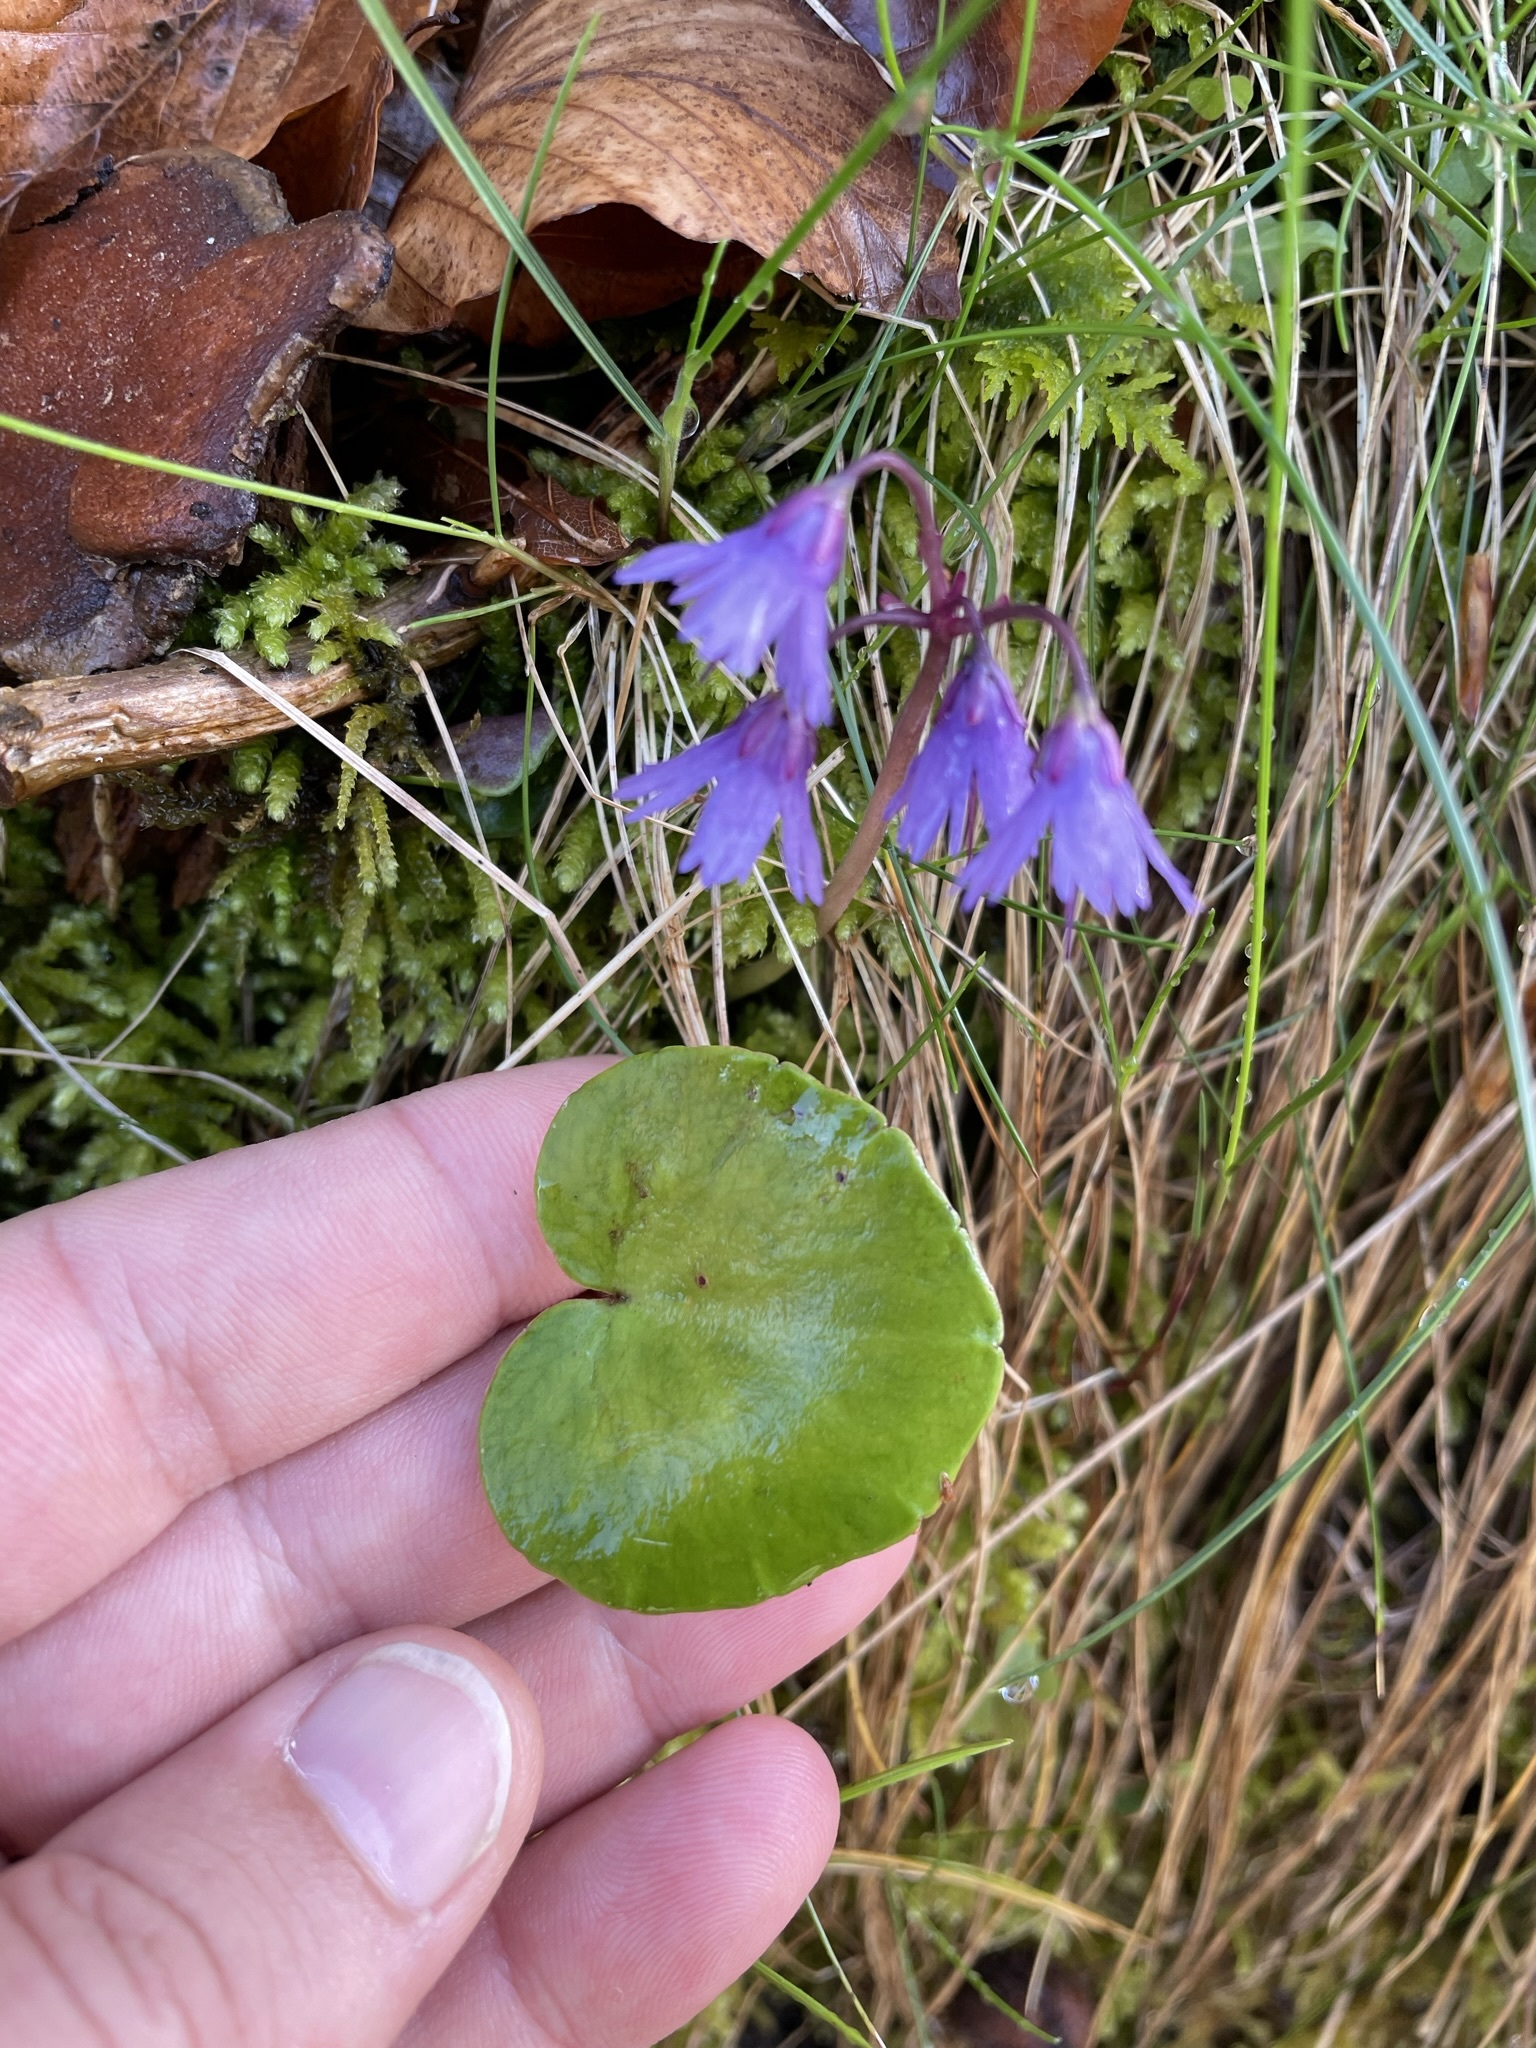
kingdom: Plantae
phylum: Tracheophyta
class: Magnoliopsida
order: Ericales
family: Primulaceae
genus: Soldanella
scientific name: Soldanella montana
